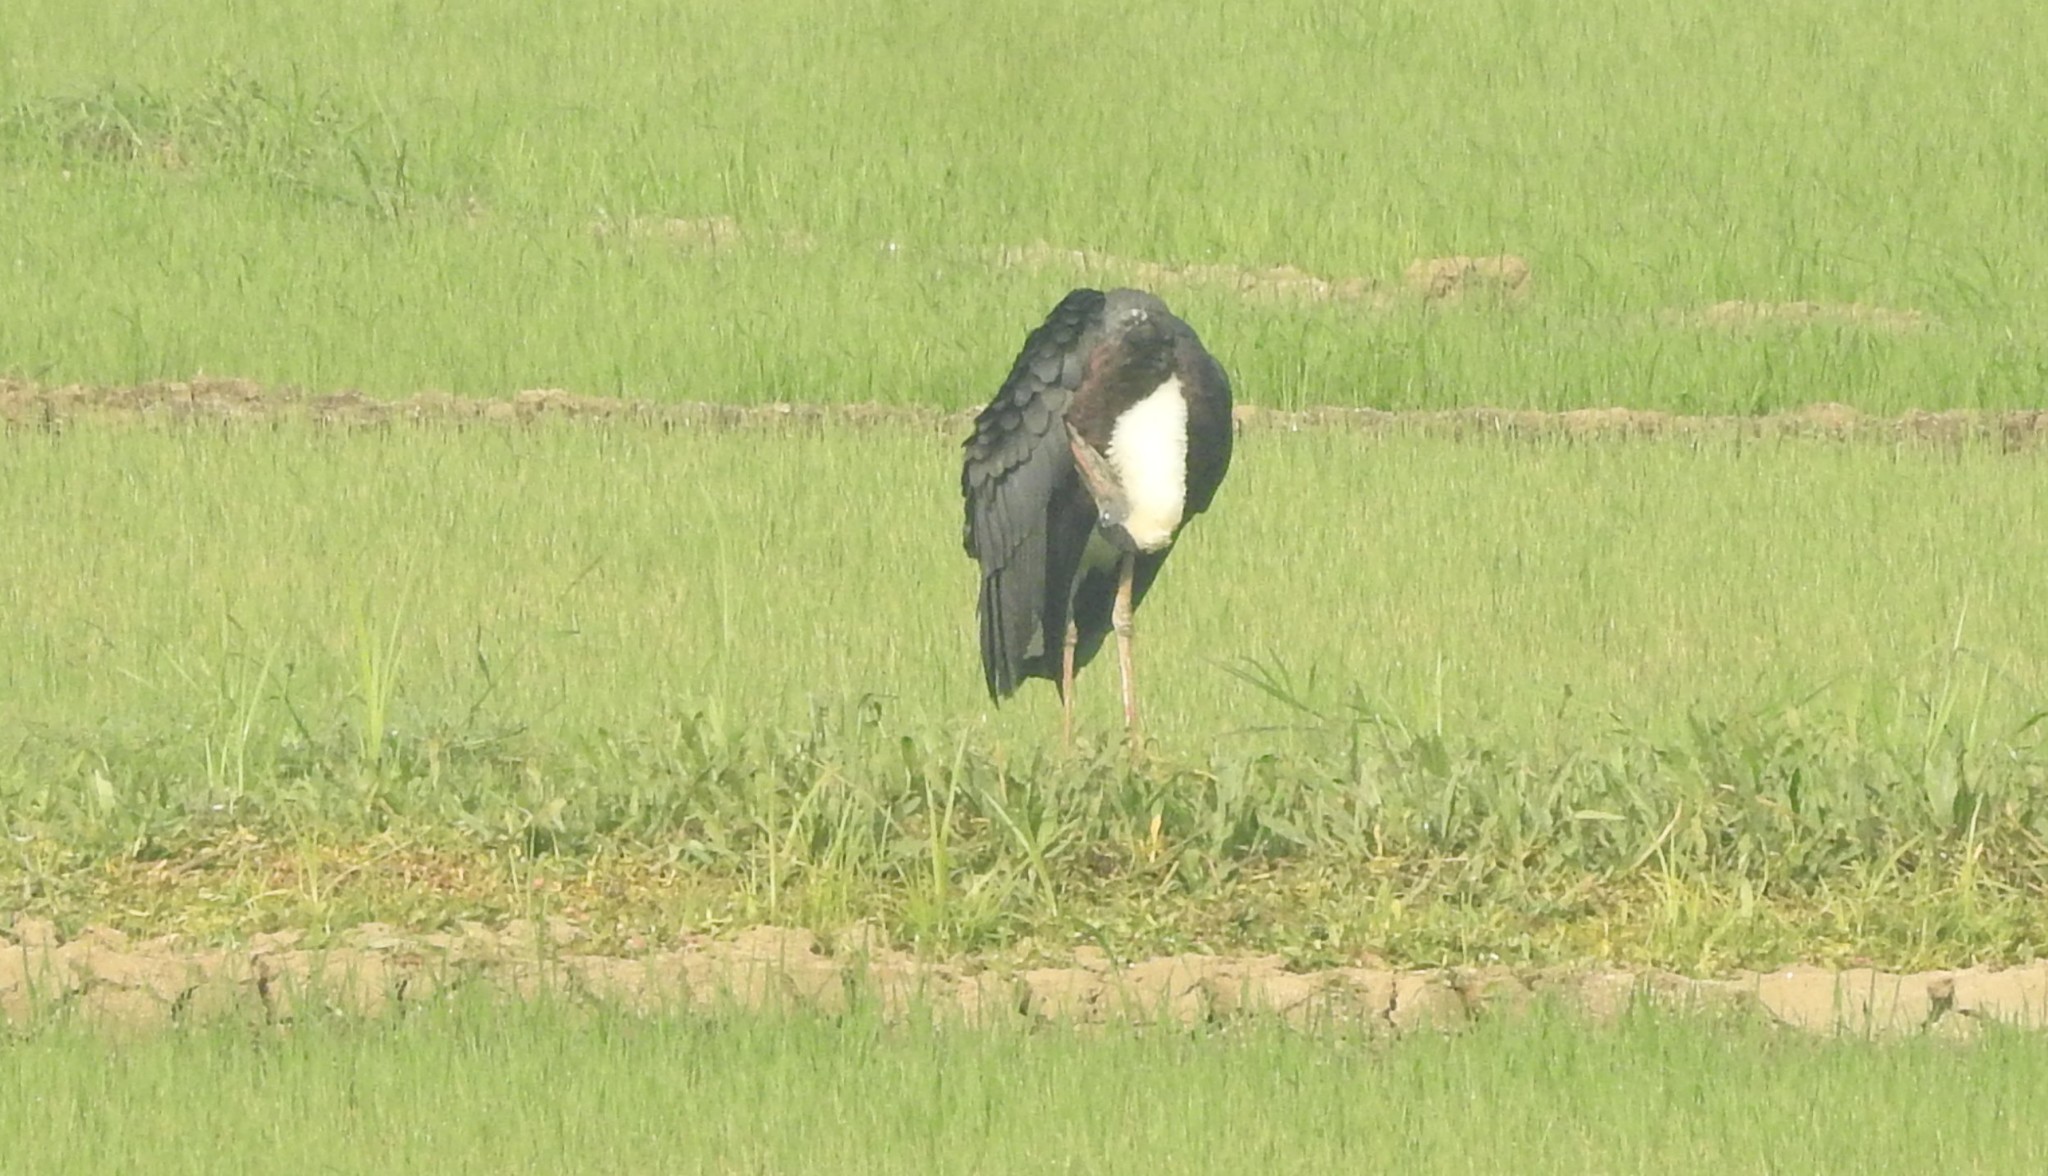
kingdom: Animalia
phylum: Chordata
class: Aves
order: Ciconiiformes
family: Ciconiidae
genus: Ciconia
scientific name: Ciconia episcopus
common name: Woolly-necked stork
